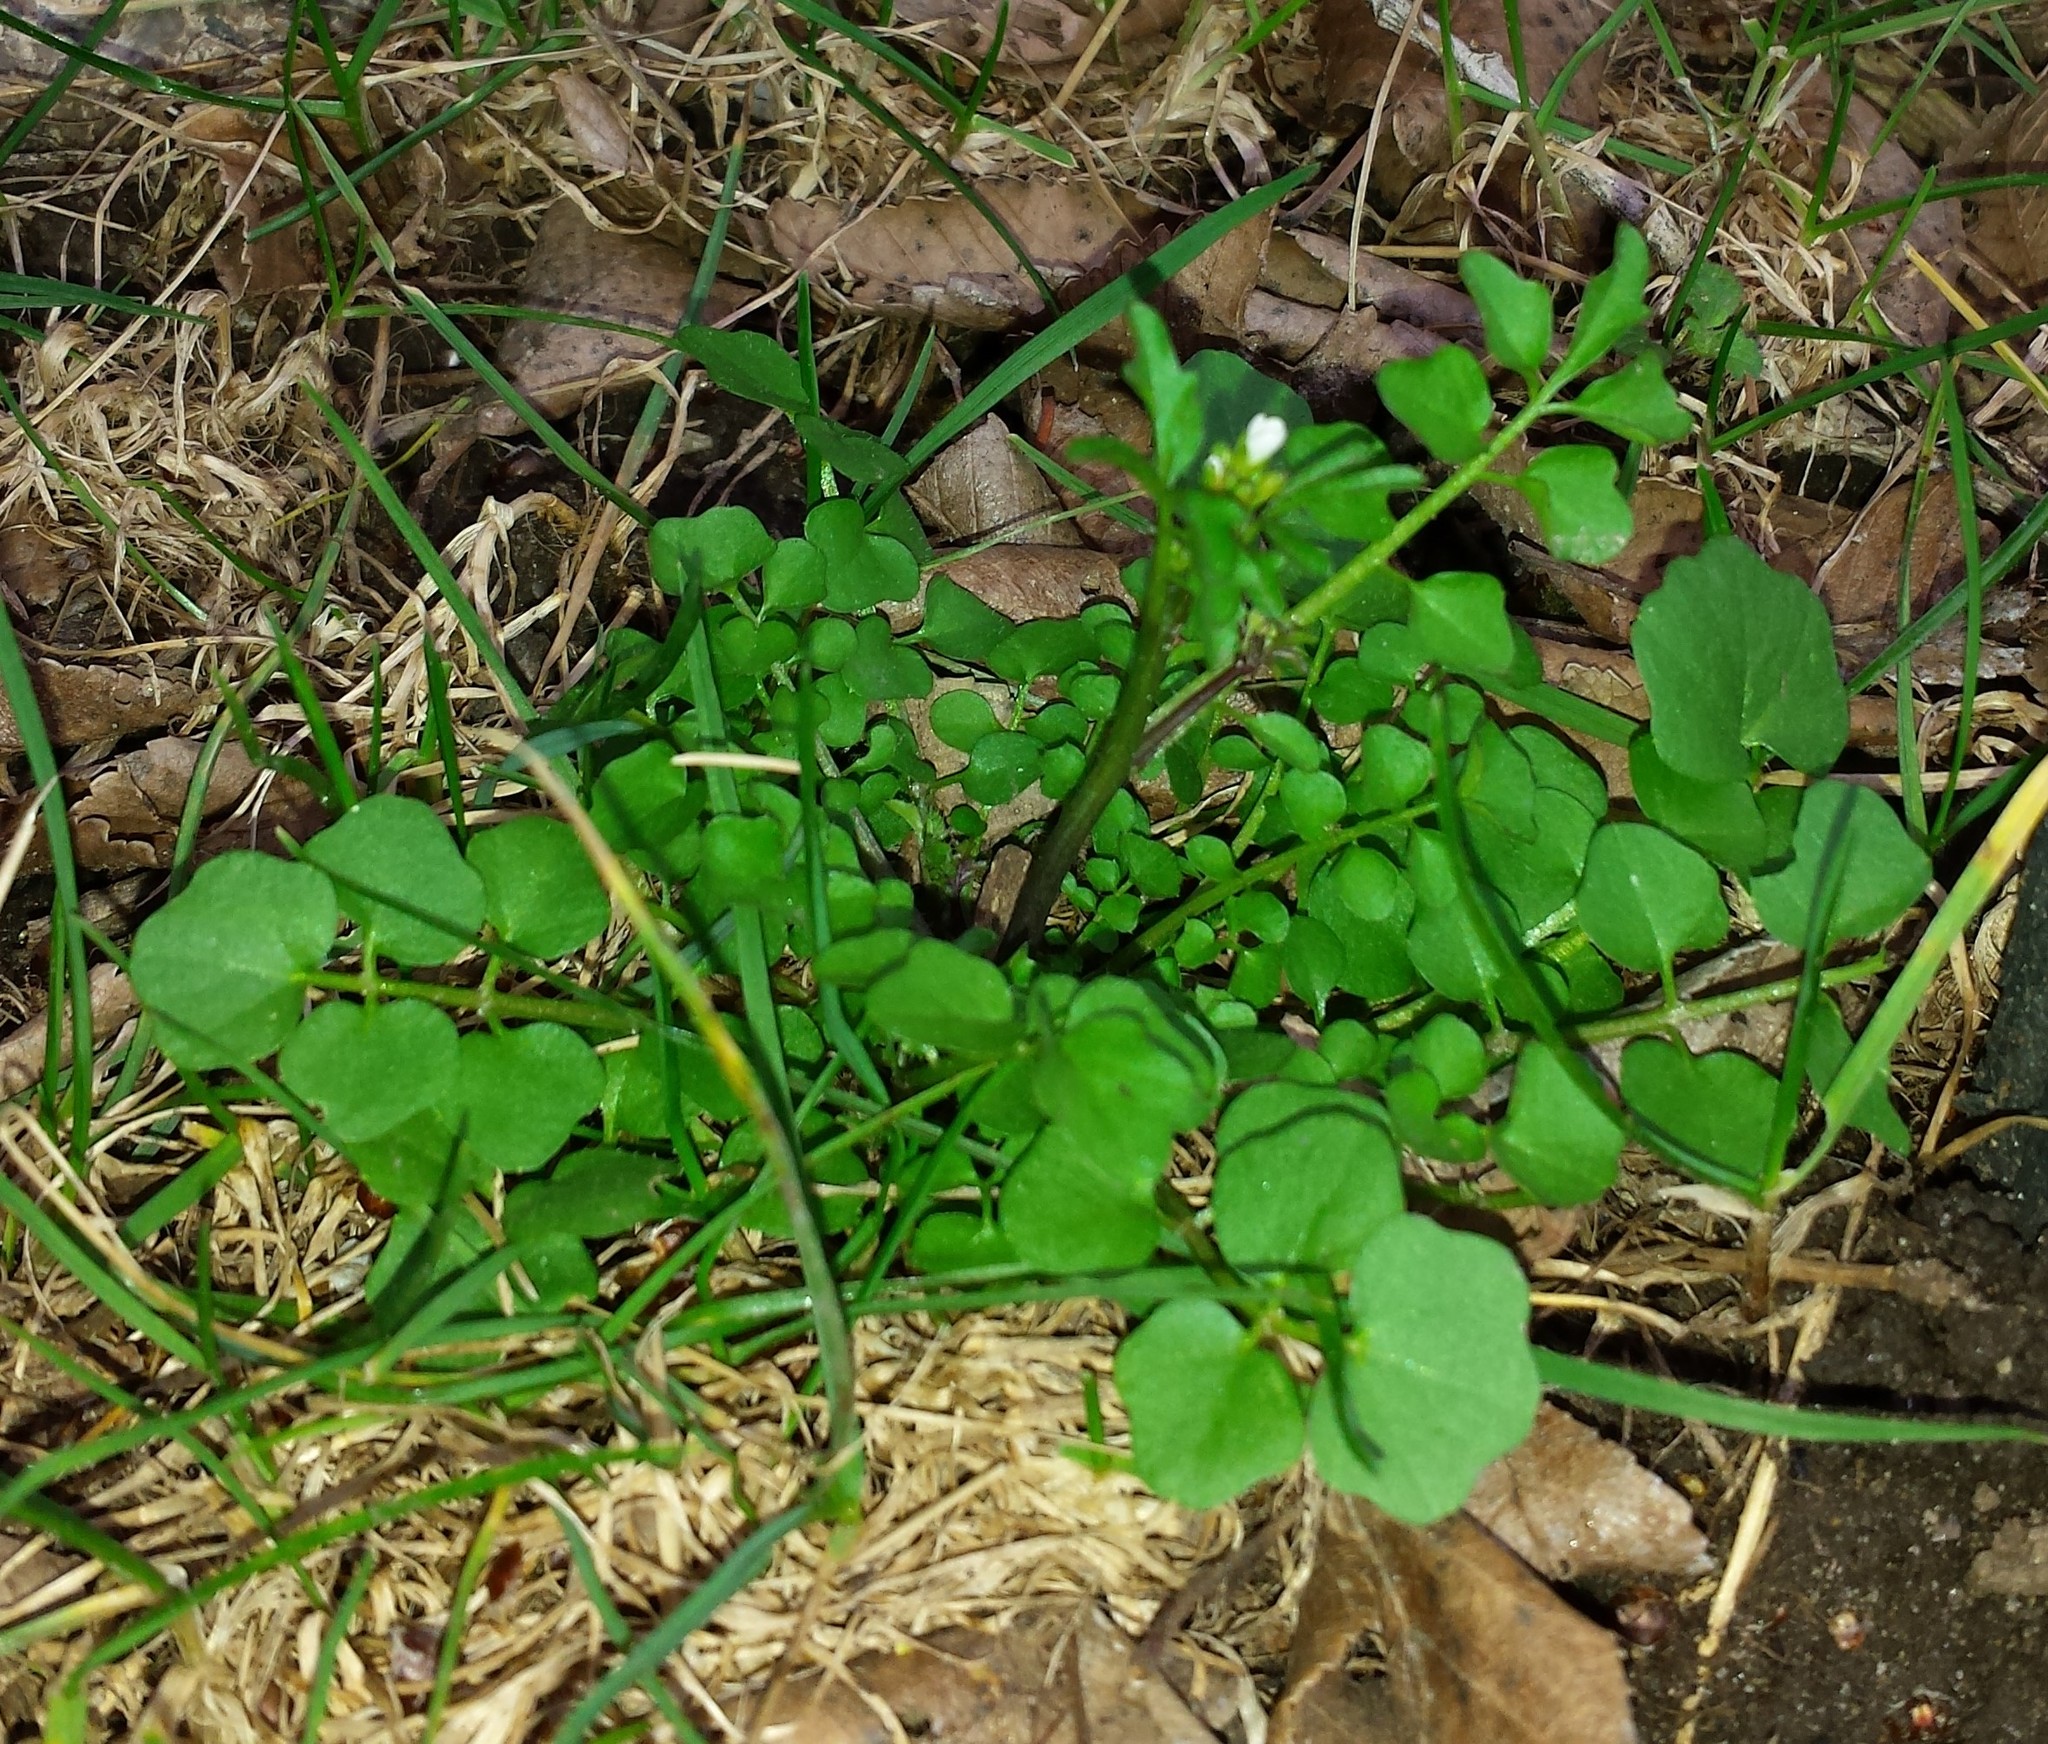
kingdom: Plantae
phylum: Tracheophyta
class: Magnoliopsida
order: Brassicales
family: Brassicaceae
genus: Cardamine
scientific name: Cardamine hirsuta
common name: Hairy bittercress
